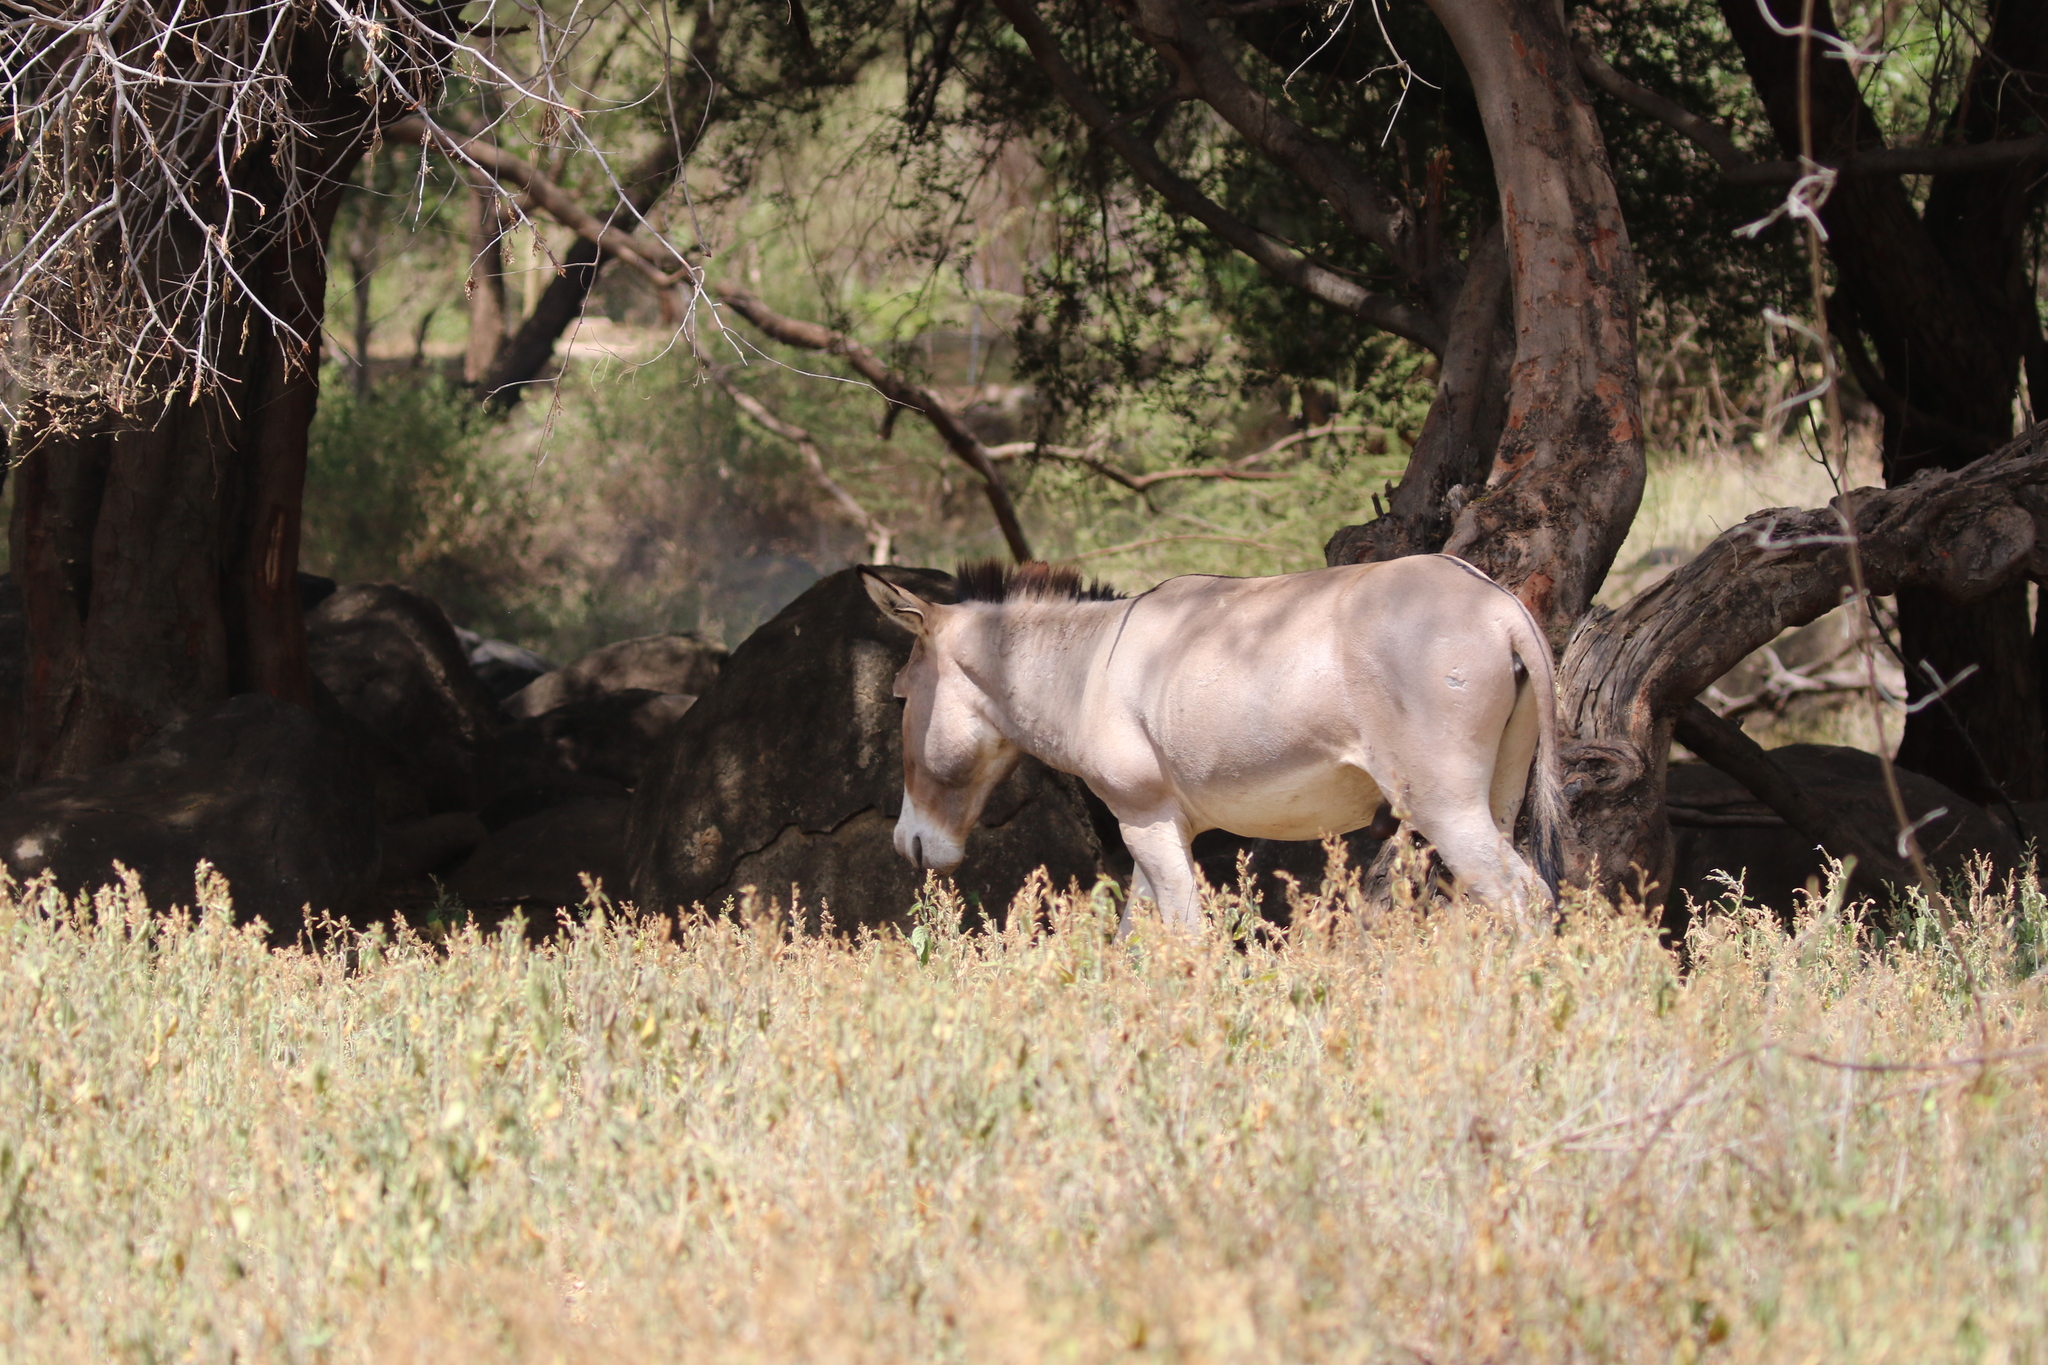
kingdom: Animalia
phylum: Chordata
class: Mammalia
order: Perissodactyla
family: Equidae
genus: Equus
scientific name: Equus asinus
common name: Ass
